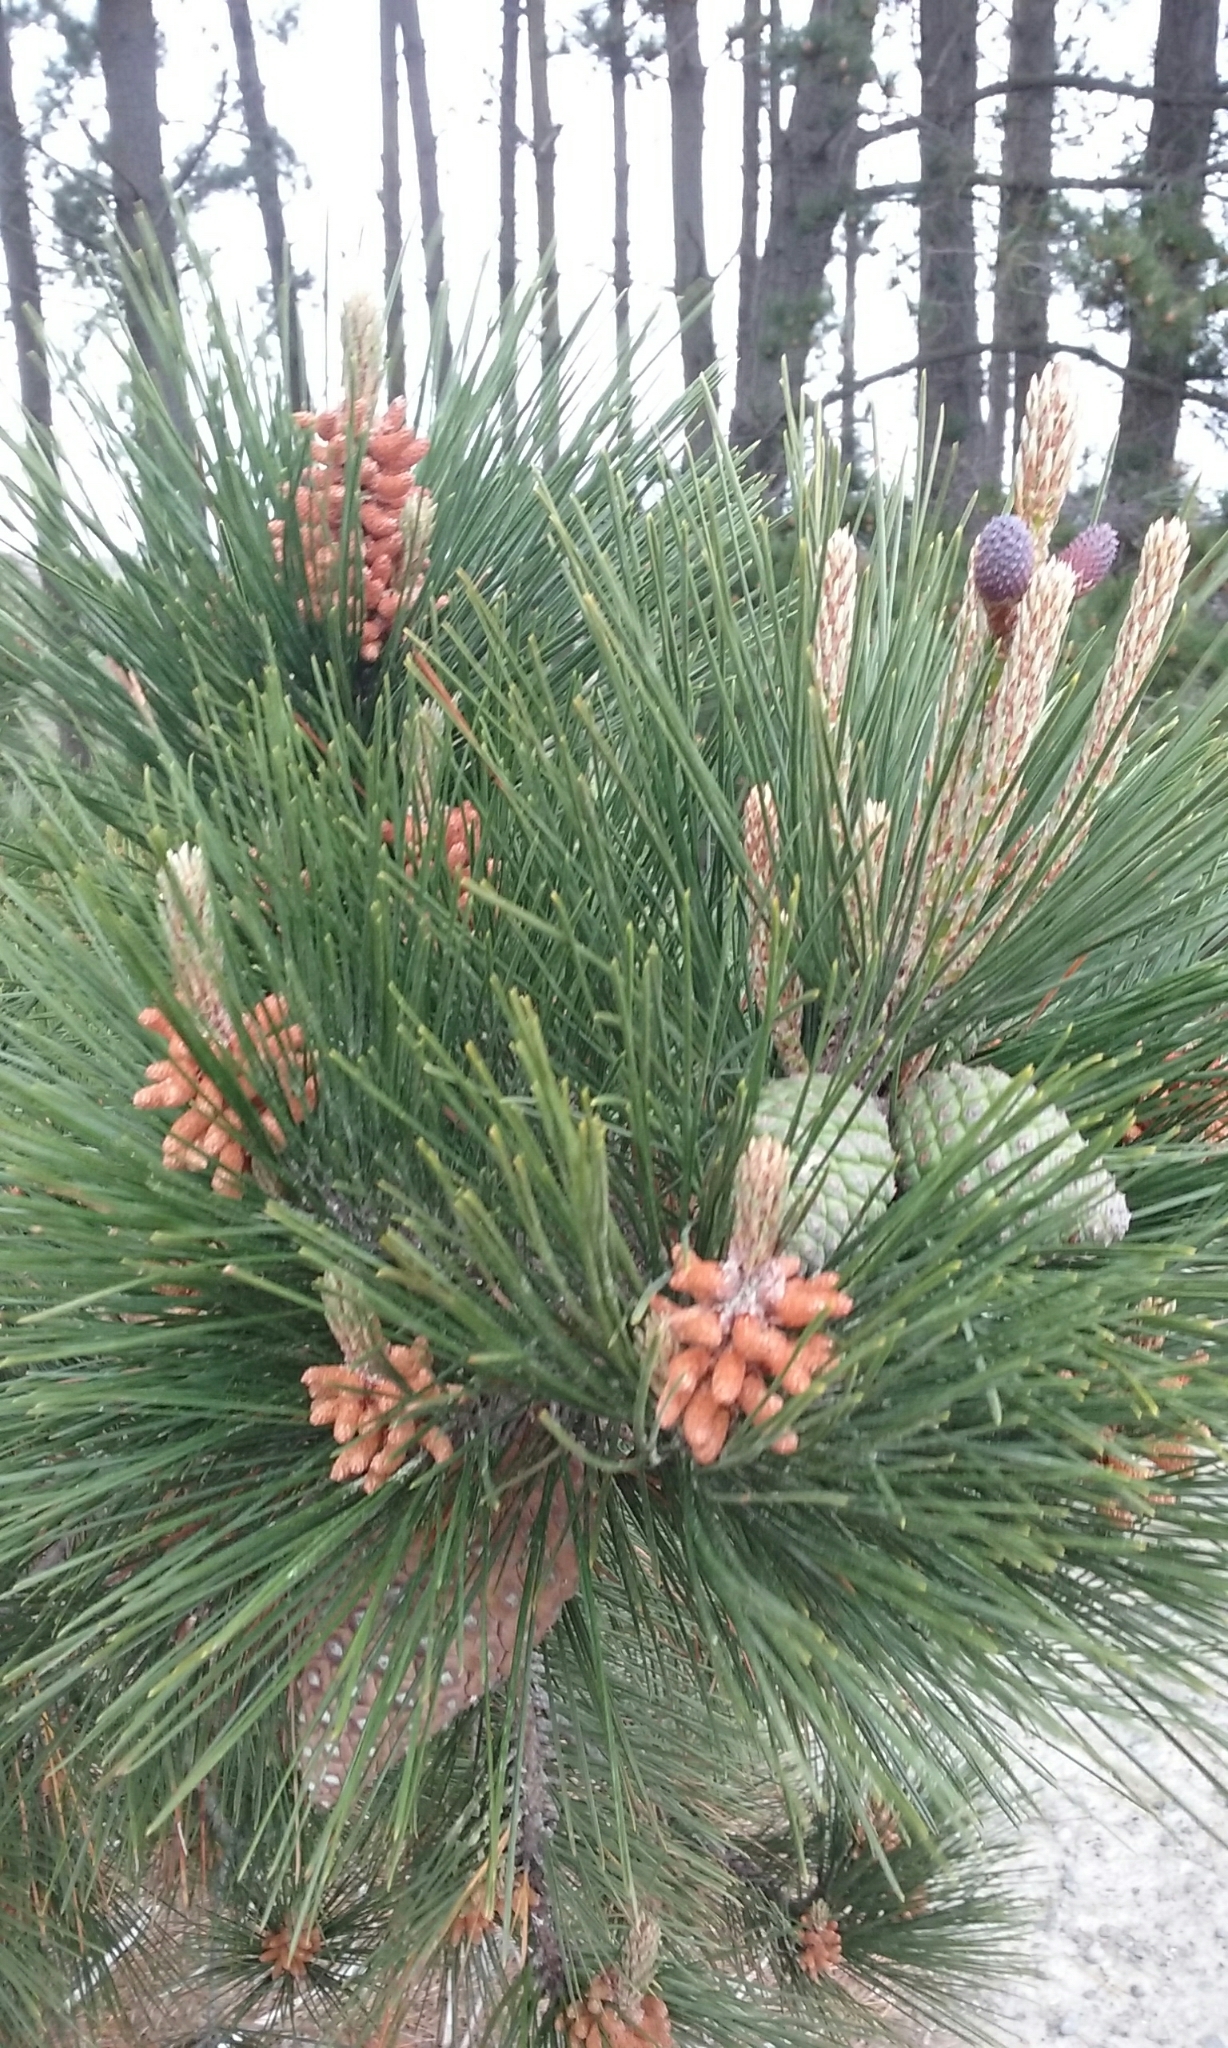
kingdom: Plantae
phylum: Tracheophyta
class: Pinopsida
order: Pinales
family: Pinaceae
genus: Pinus
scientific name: Pinus radiata
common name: Monterey pine
